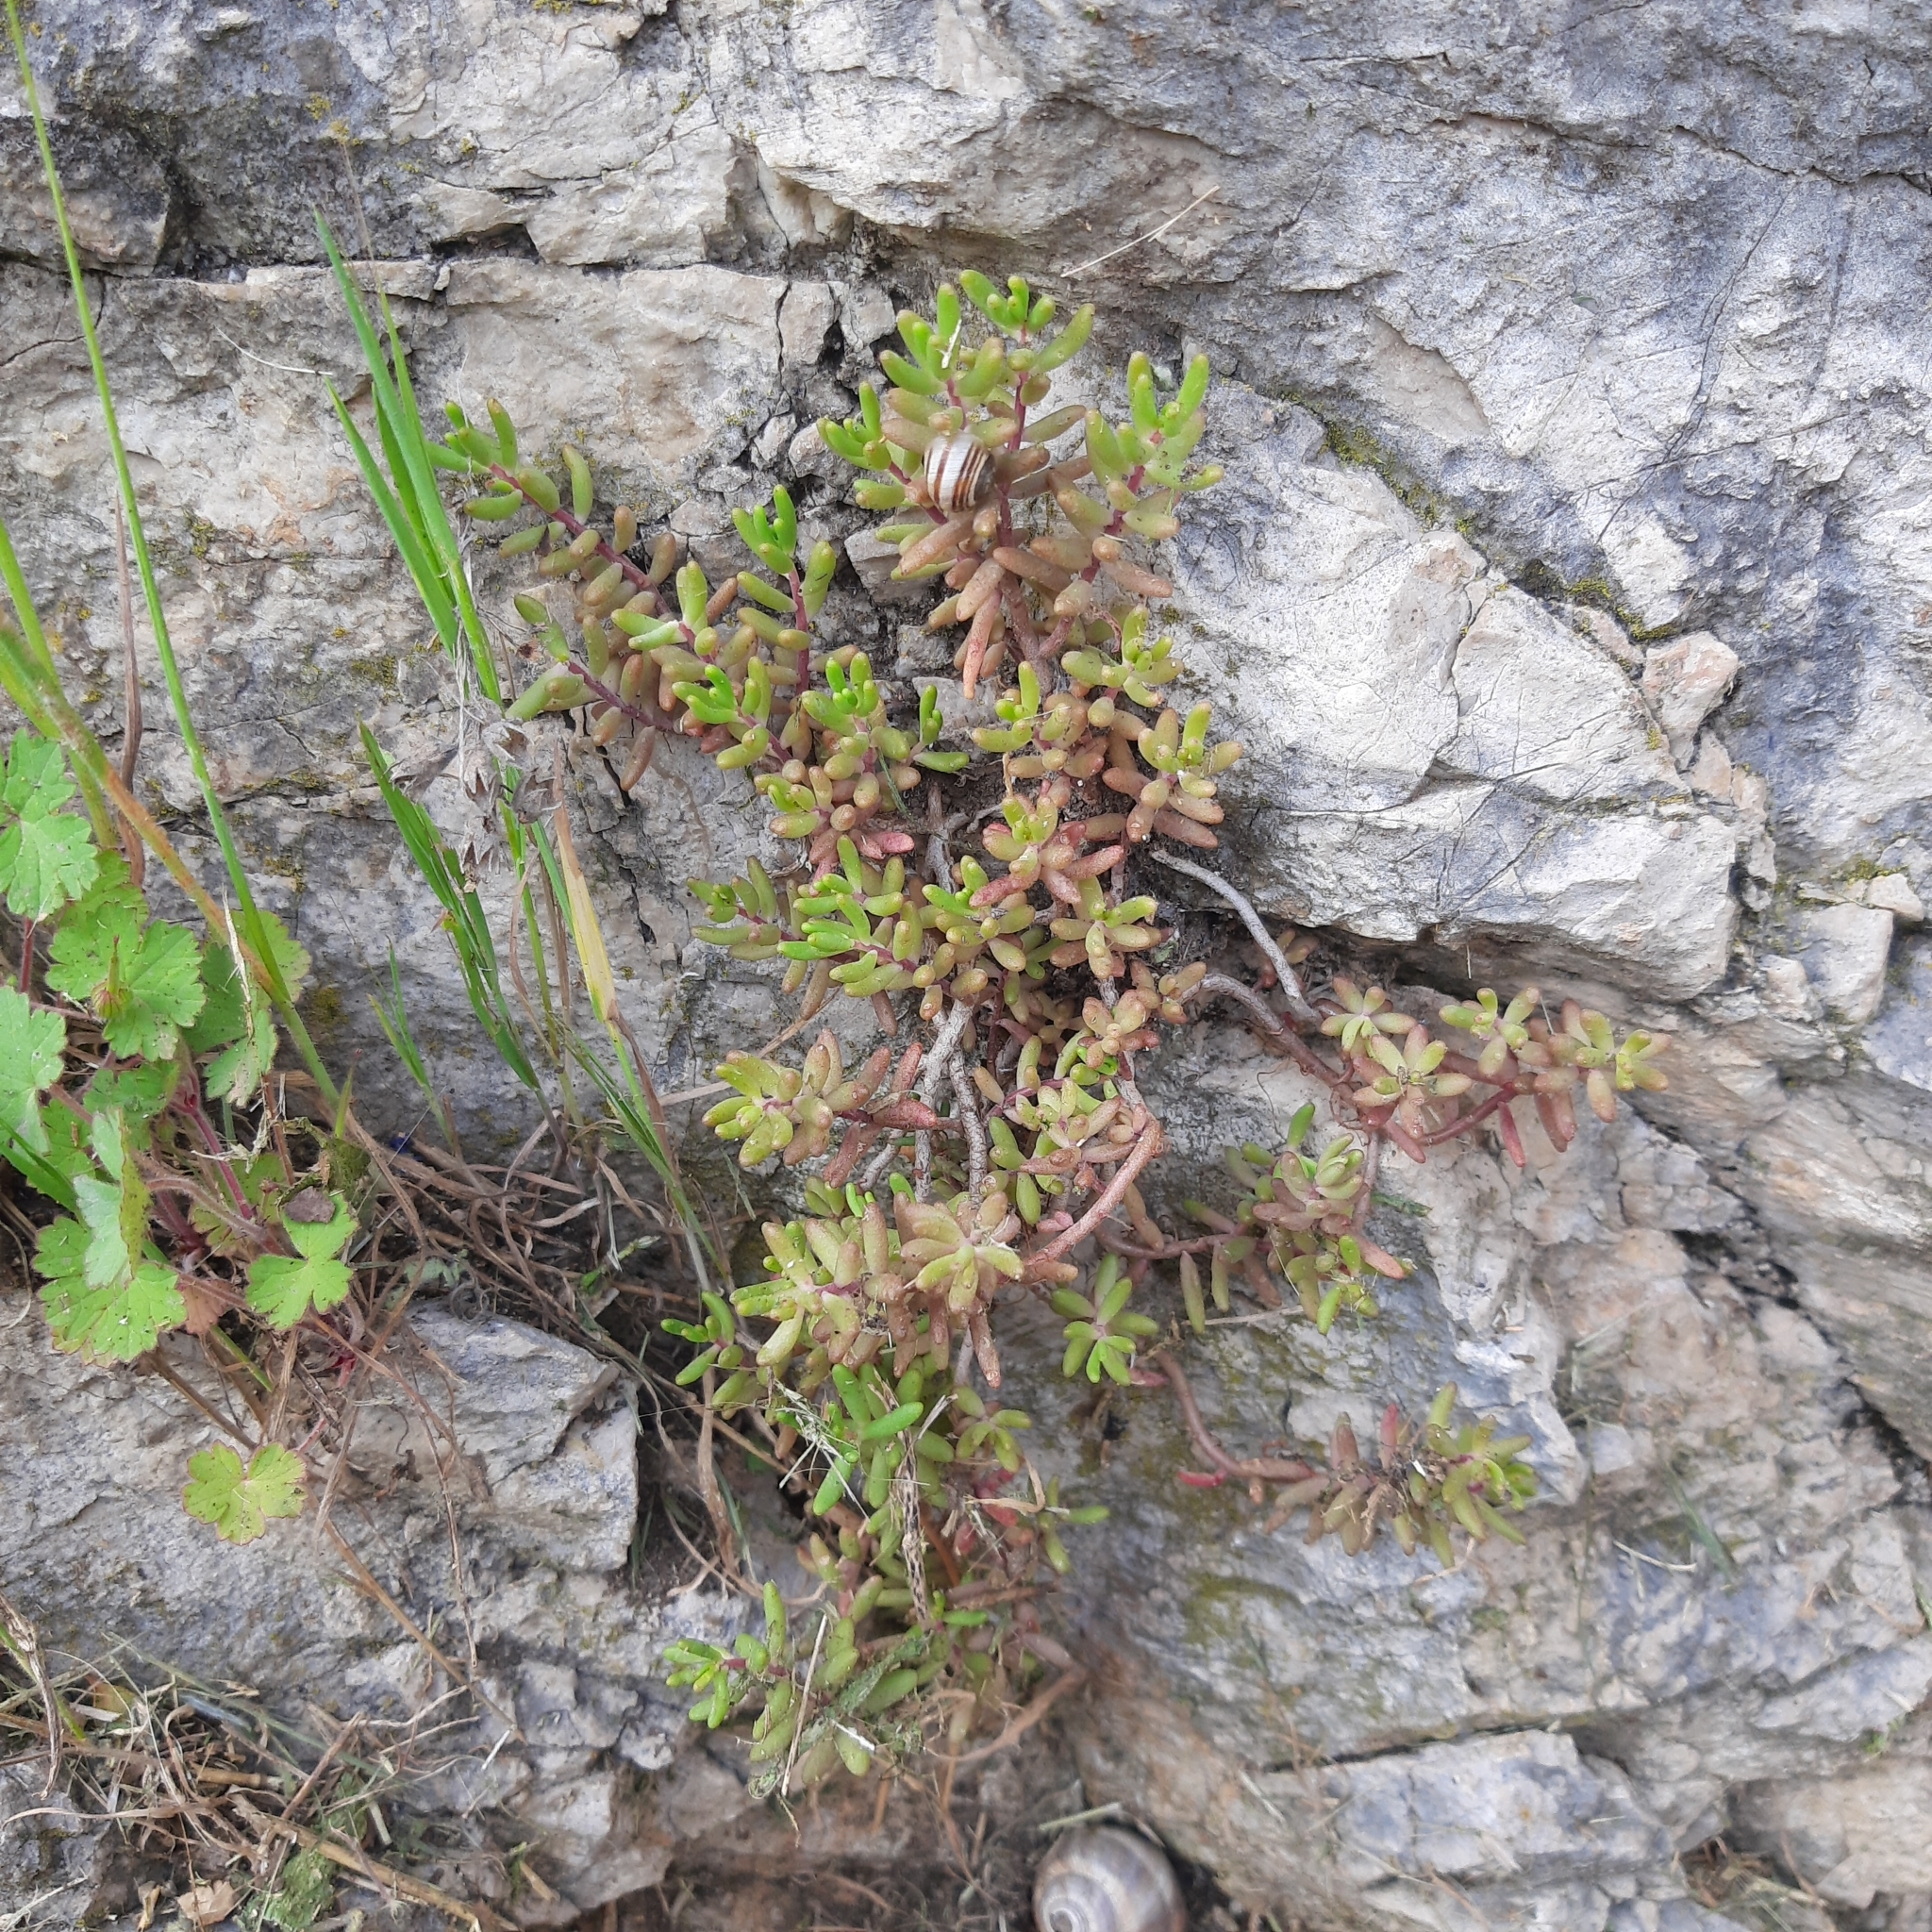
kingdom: Plantae
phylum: Tracheophyta
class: Magnoliopsida
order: Saxifragales
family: Crassulaceae
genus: Sedum
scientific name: Sedum album
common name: White stonecrop
